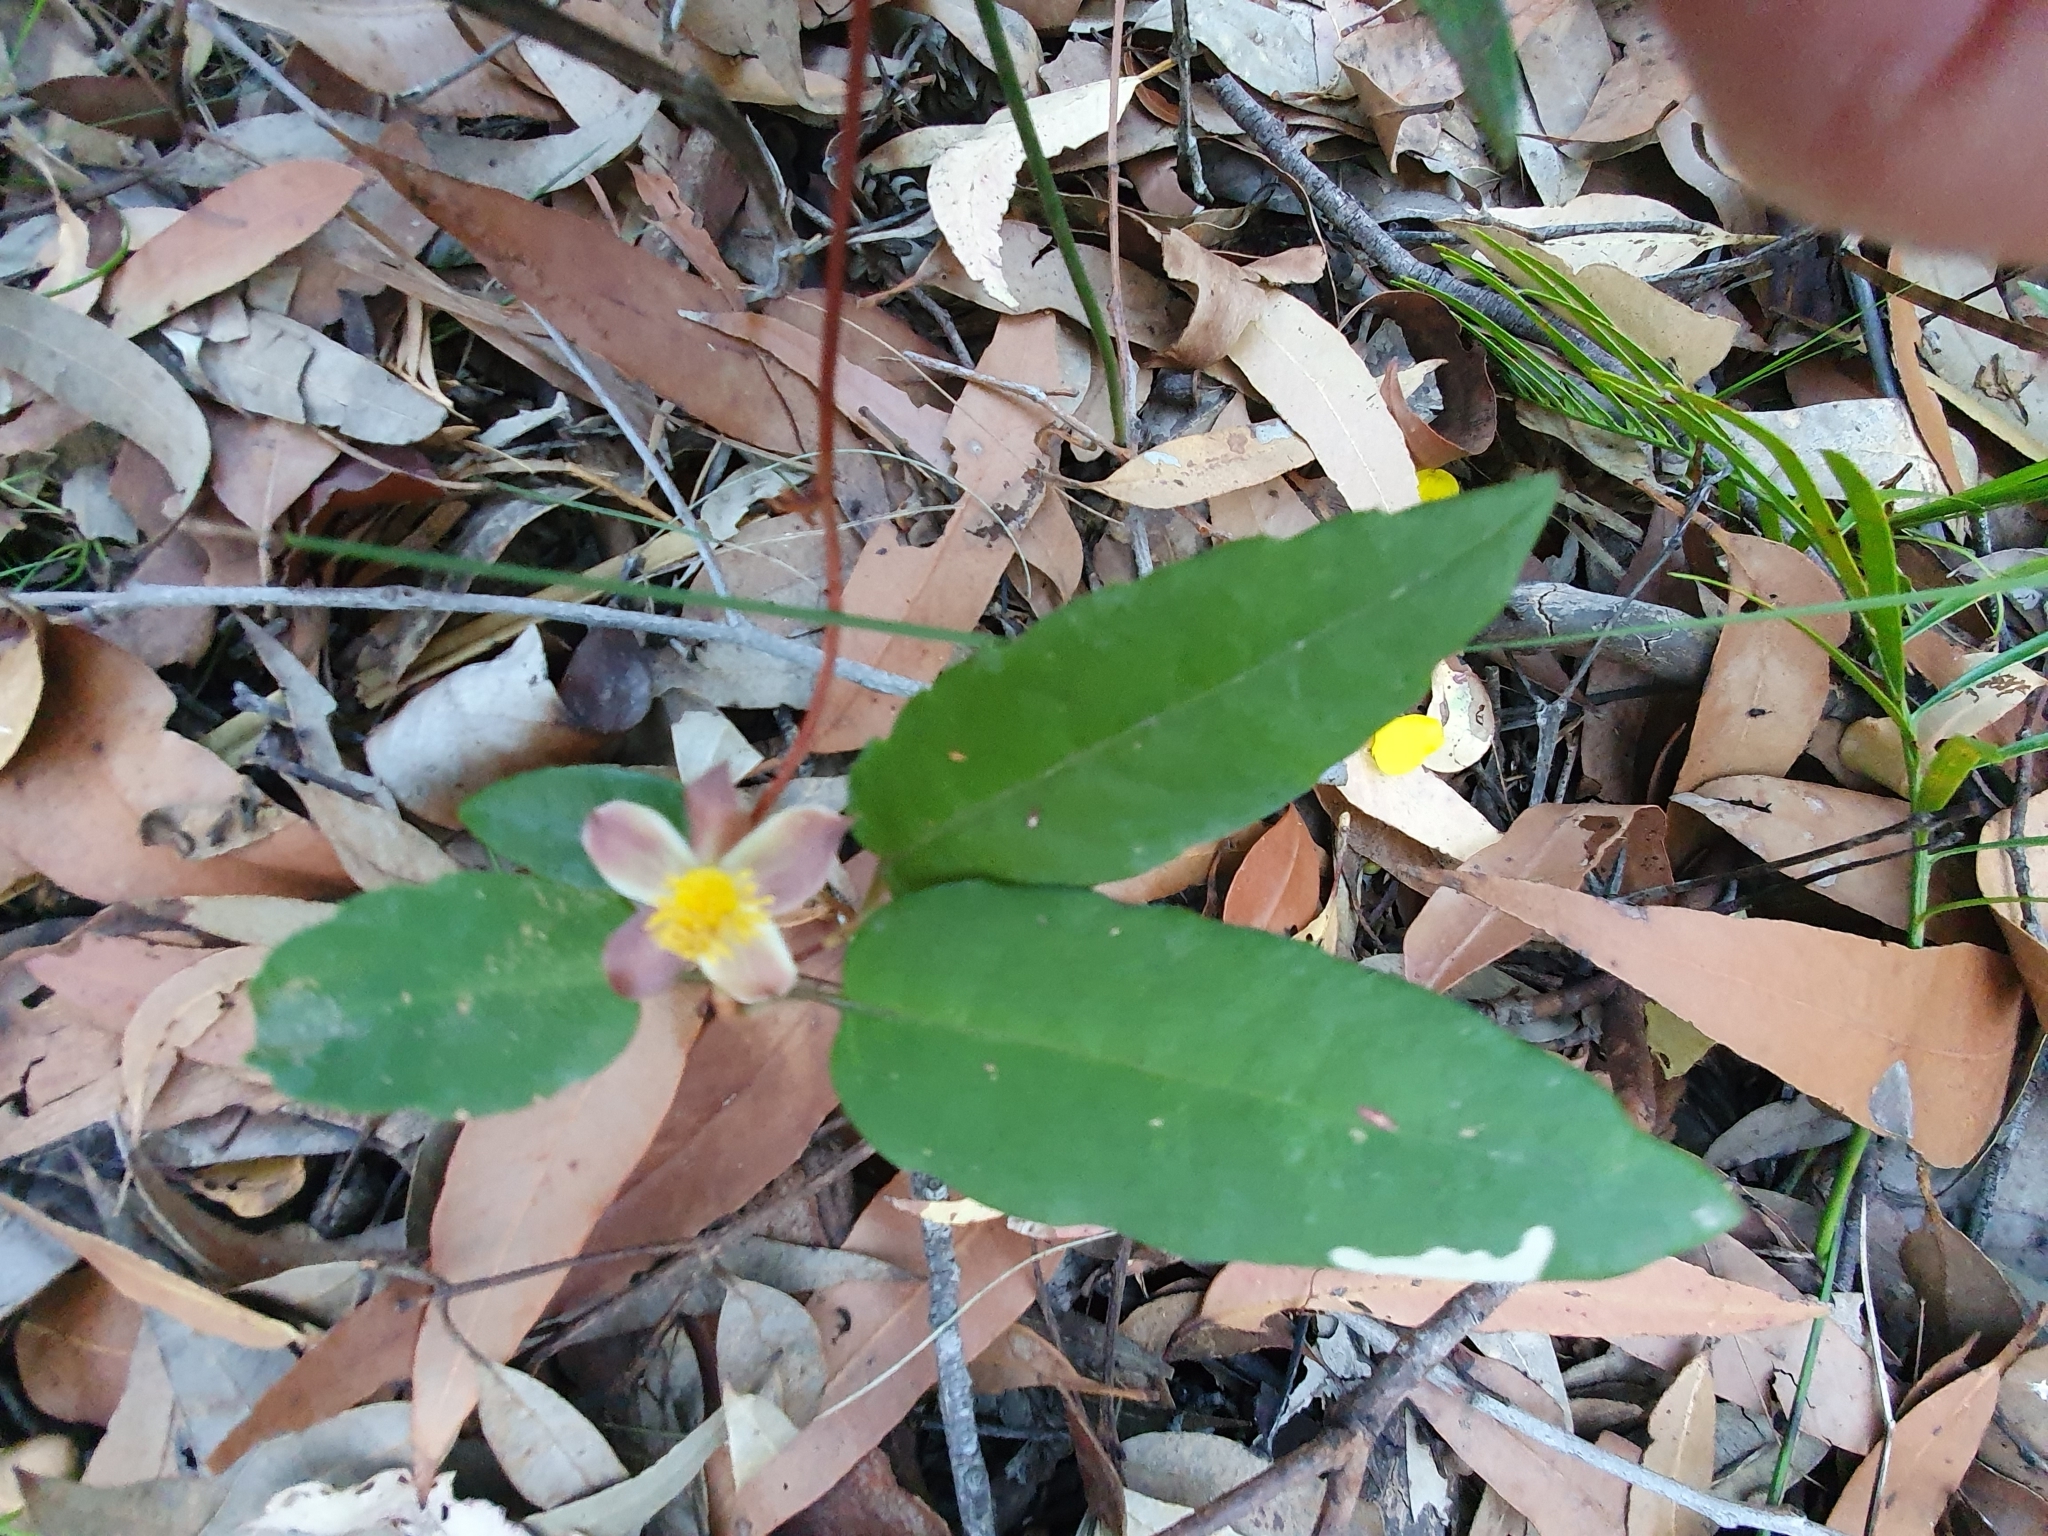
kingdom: Plantae
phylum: Tracheophyta
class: Magnoliopsida
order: Dilleniales
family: Dilleniaceae
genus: Hibbertia
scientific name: Hibbertia dentata
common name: Trailing guinea-flower
